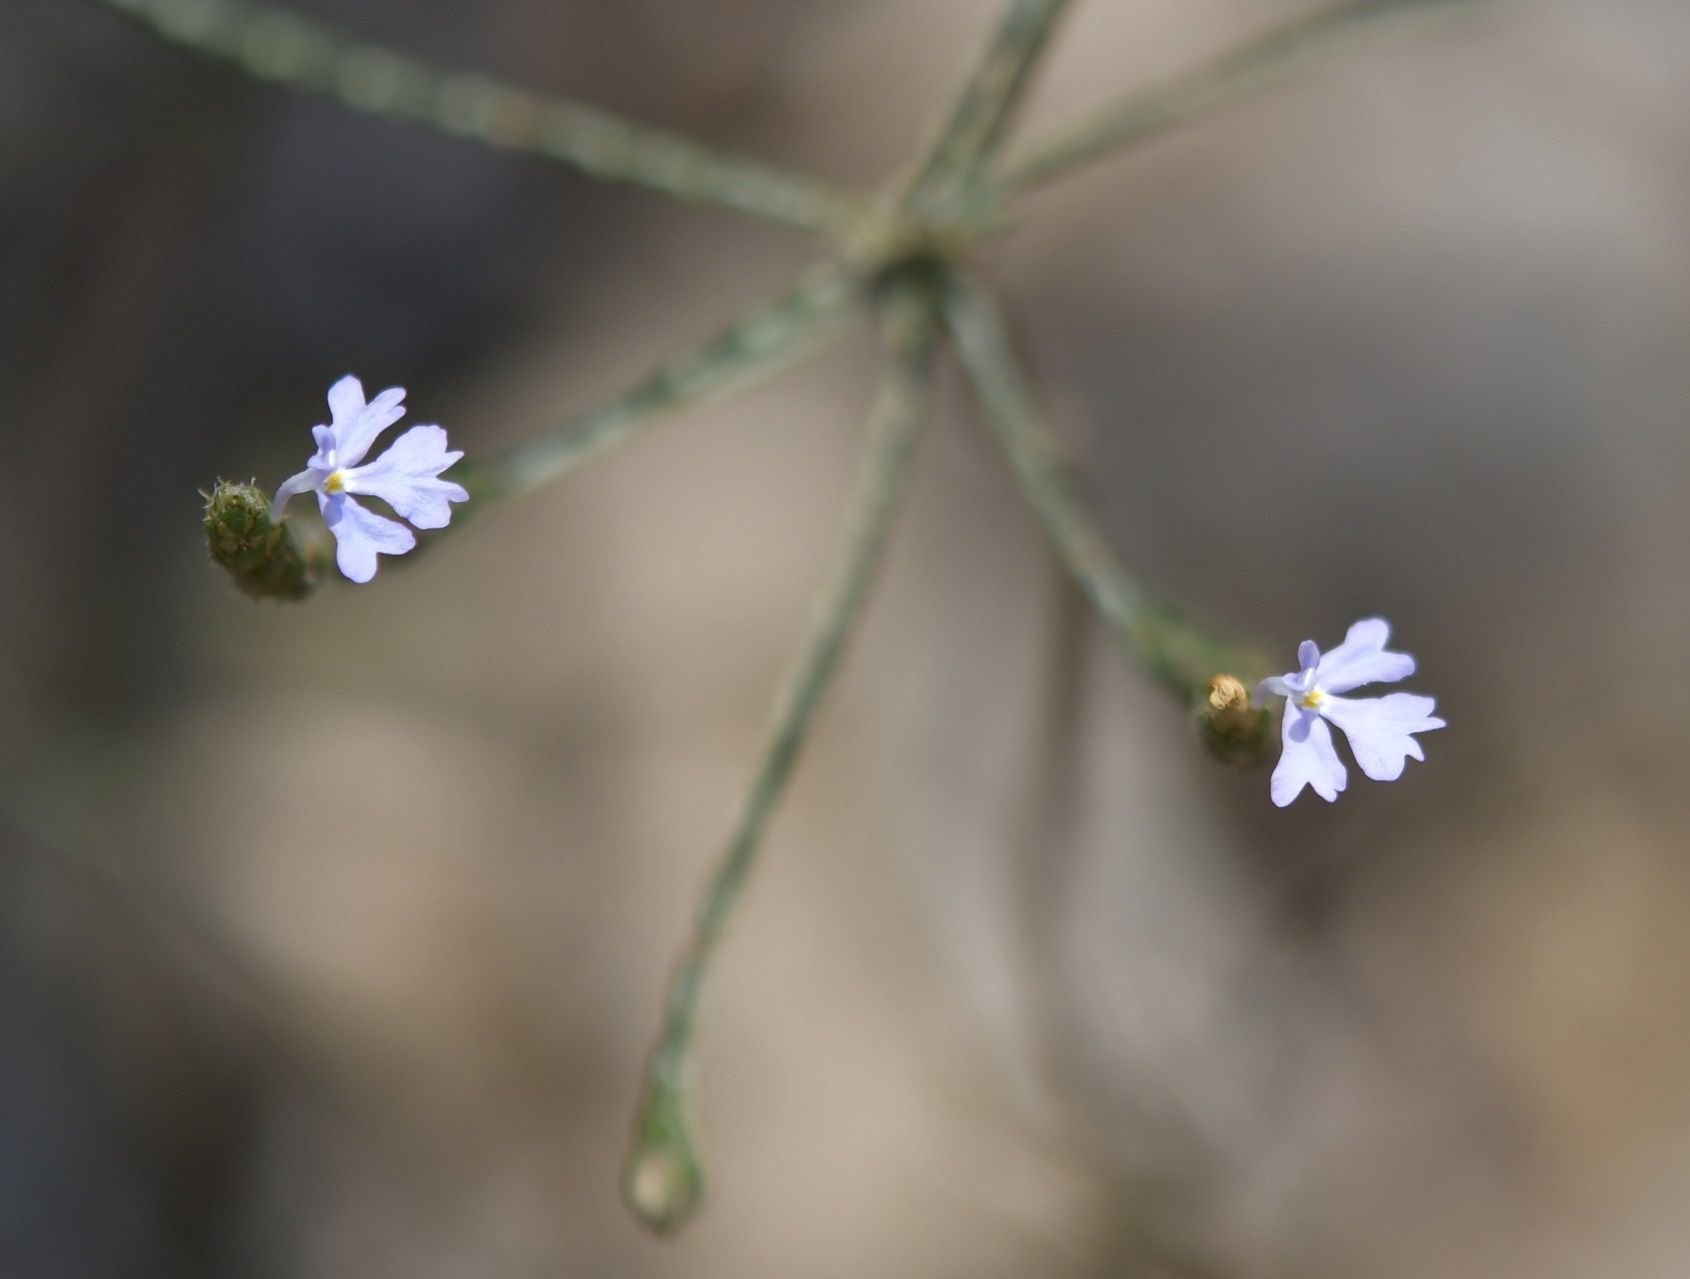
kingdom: Plantae
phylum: Tracheophyta
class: Magnoliopsida
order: Lamiales
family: Acanthaceae
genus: Elytraria
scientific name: Elytraria imbricata
